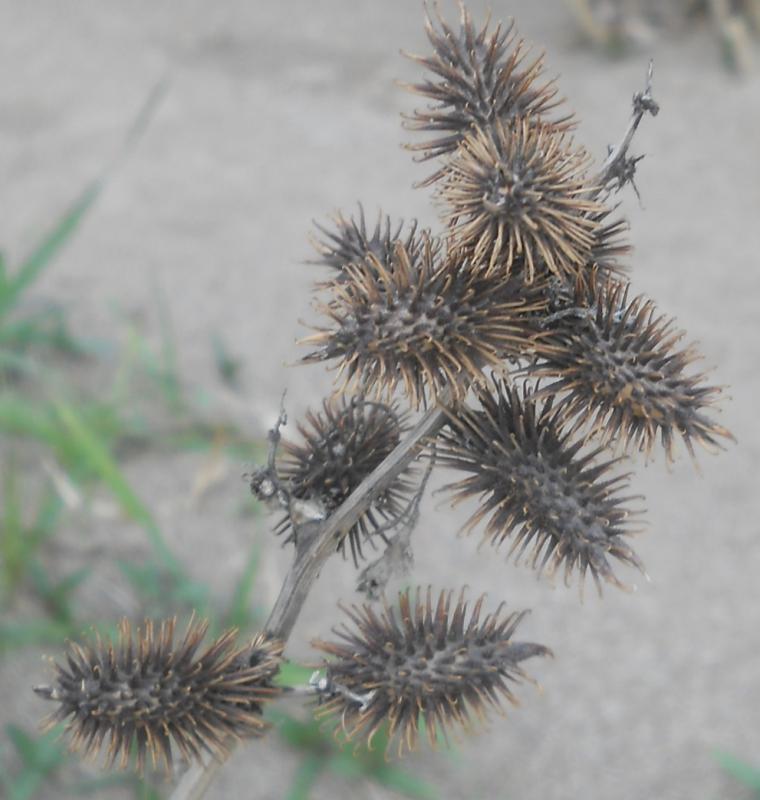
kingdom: Plantae
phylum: Tracheophyta
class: Magnoliopsida
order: Asterales
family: Asteraceae
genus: Xanthium
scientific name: Xanthium strumarium
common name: Rough cocklebur
